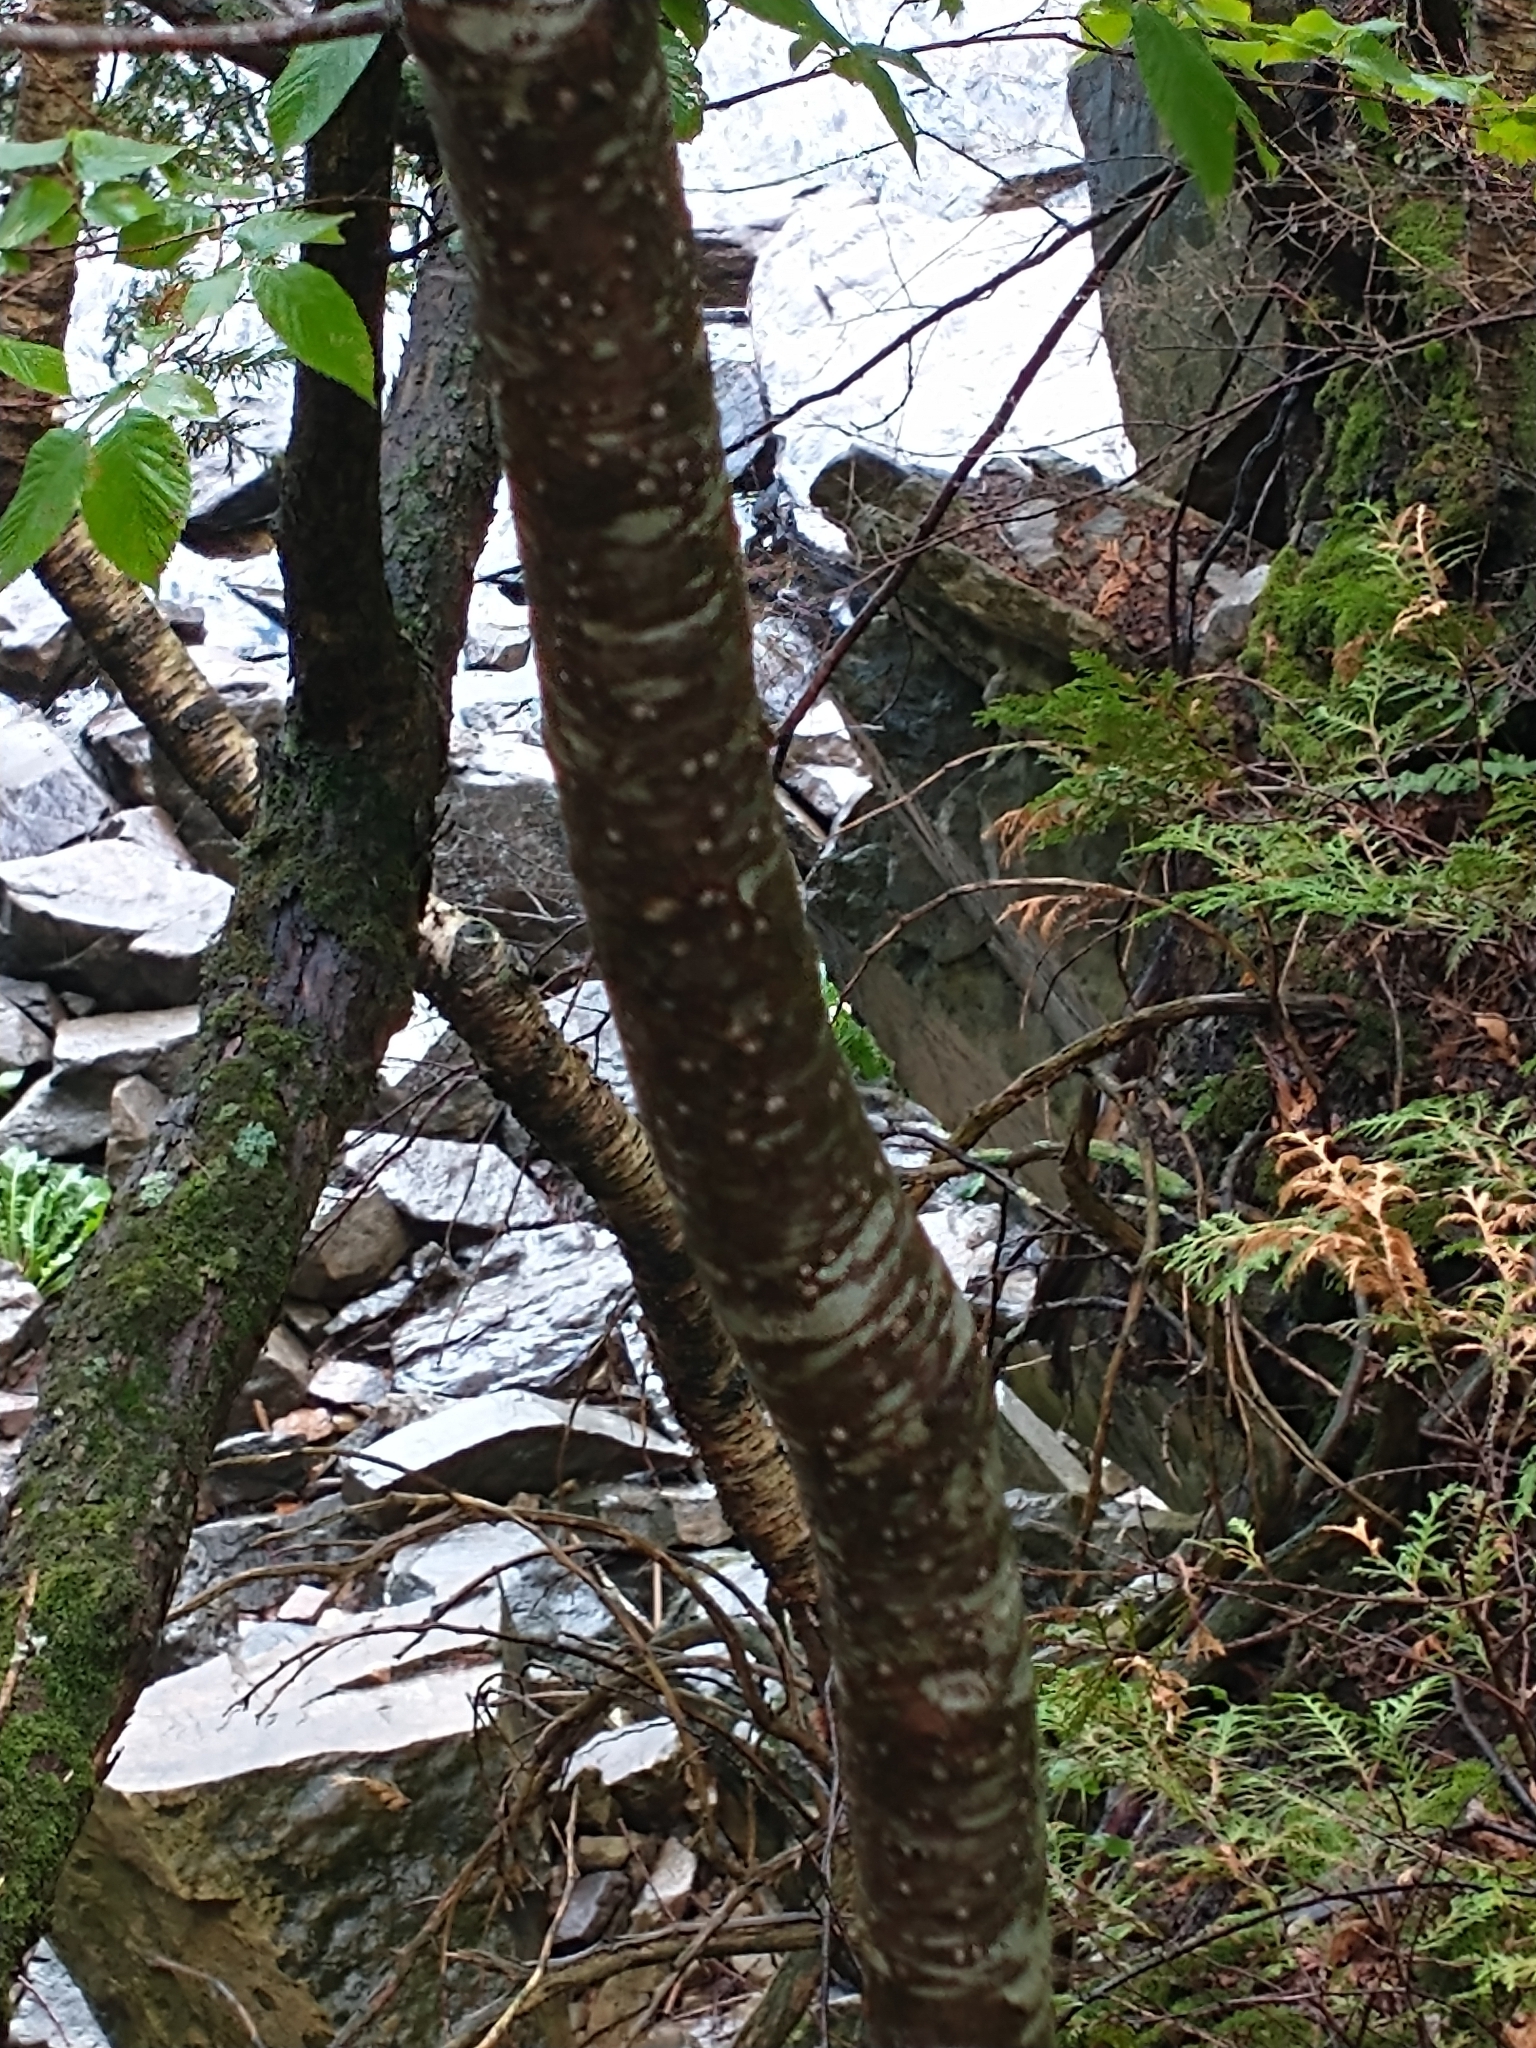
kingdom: Plantae
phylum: Tracheophyta
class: Magnoliopsida
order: Rosales
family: Rhamnaceae
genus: Rhamnus
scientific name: Rhamnus cathartica
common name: Common buckthorn
